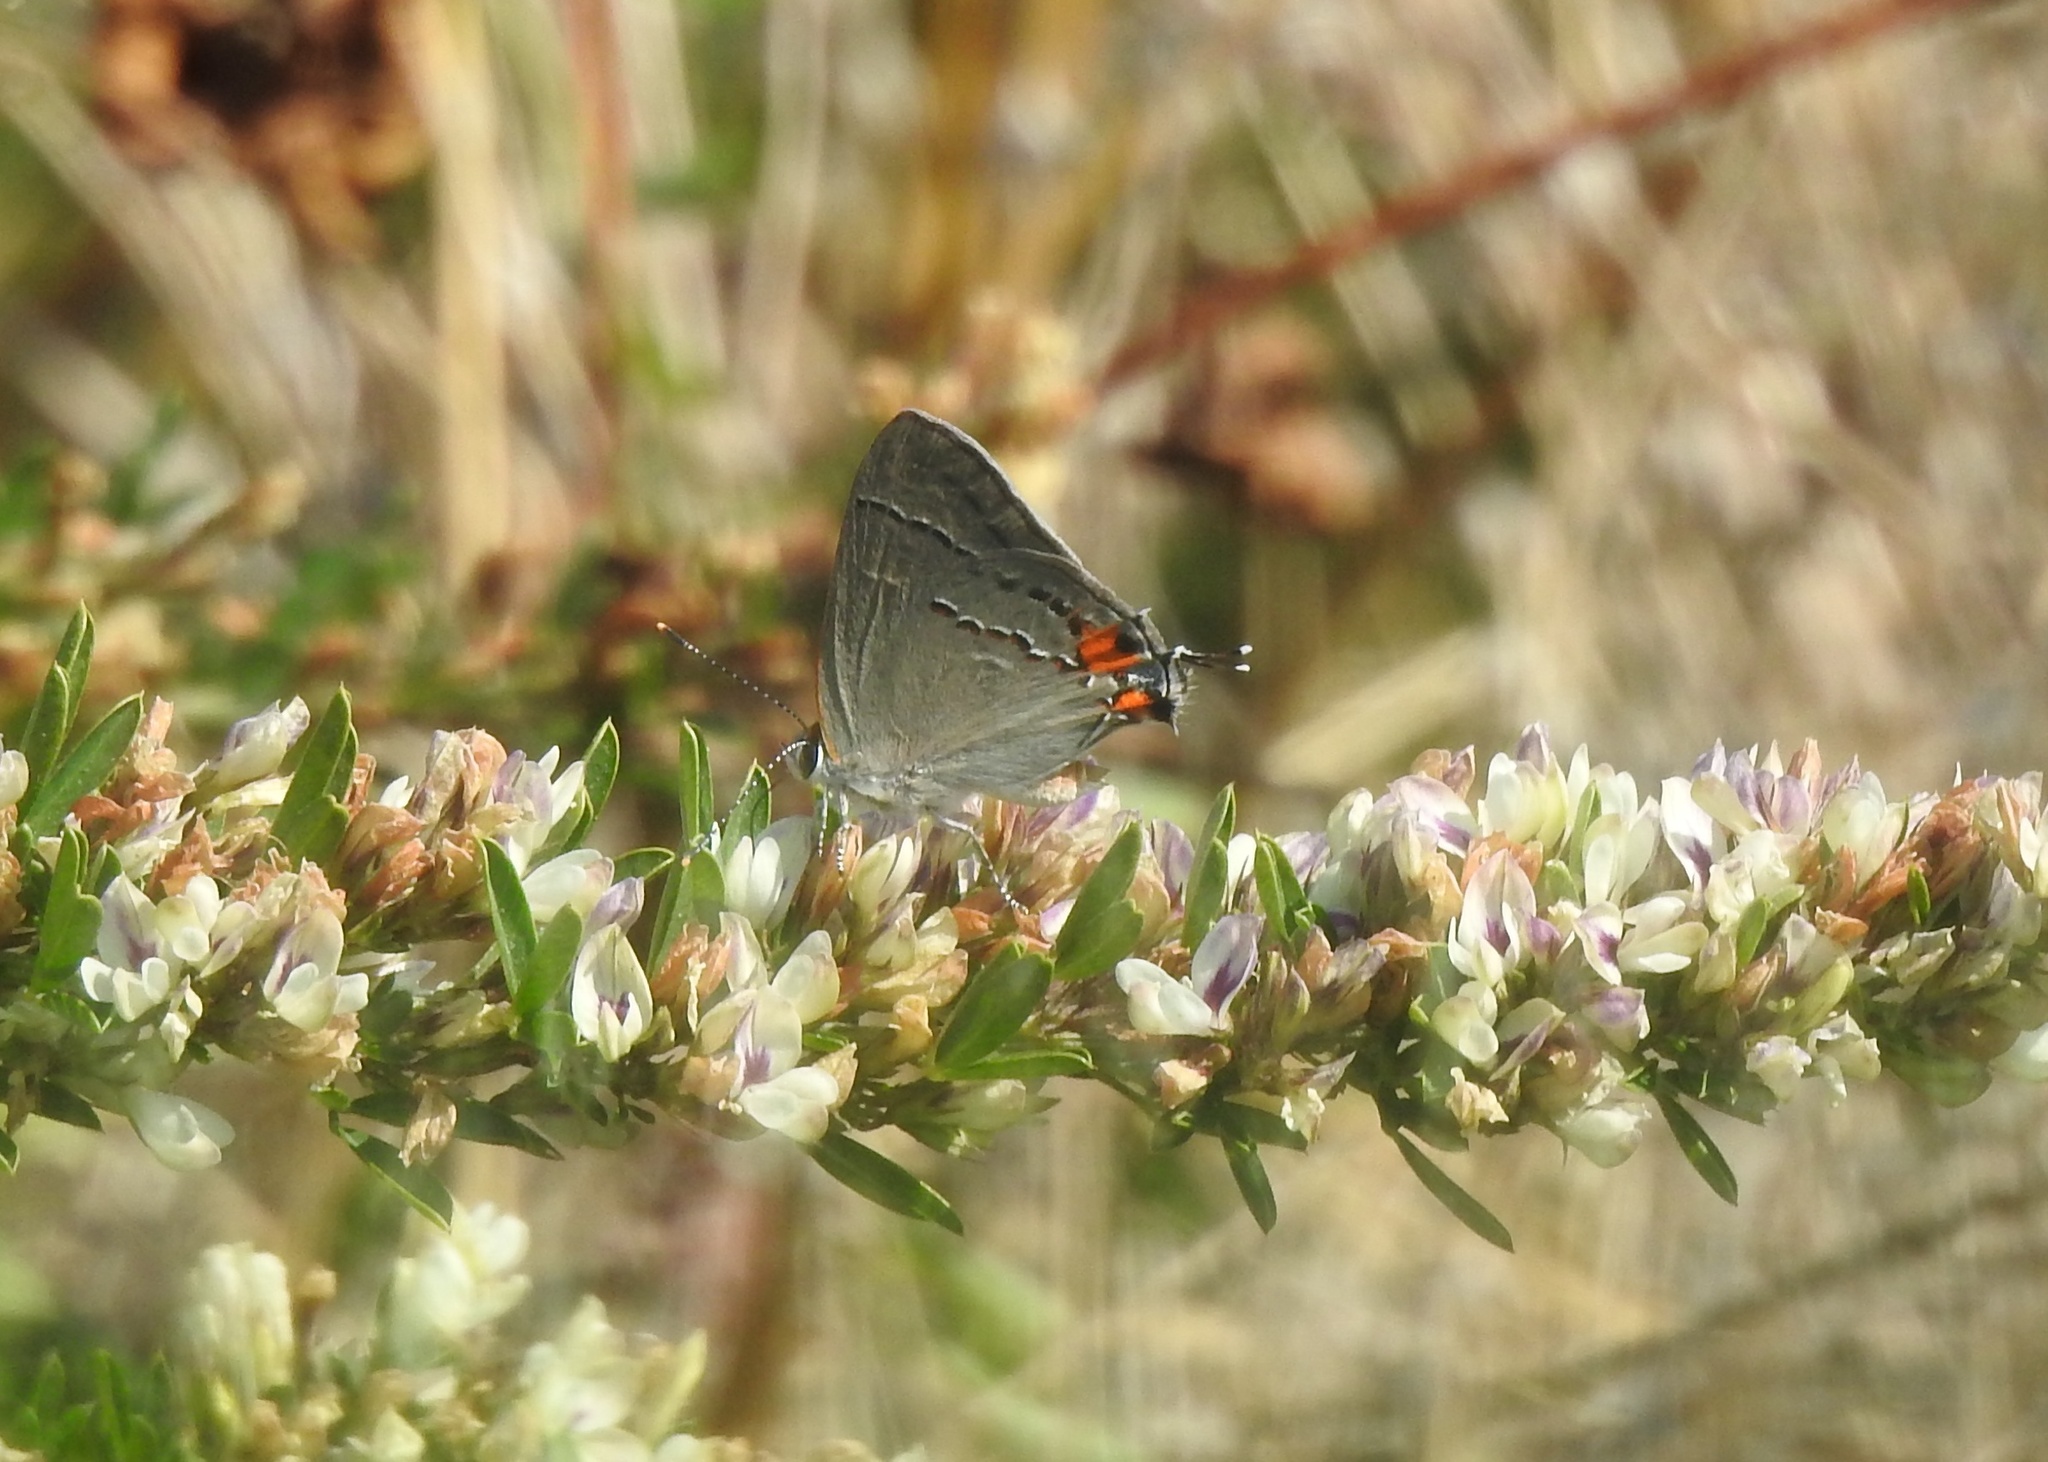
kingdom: Animalia
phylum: Arthropoda
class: Insecta
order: Lepidoptera
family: Lycaenidae
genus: Strymon
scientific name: Strymon melinus
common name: Gray hairstreak
